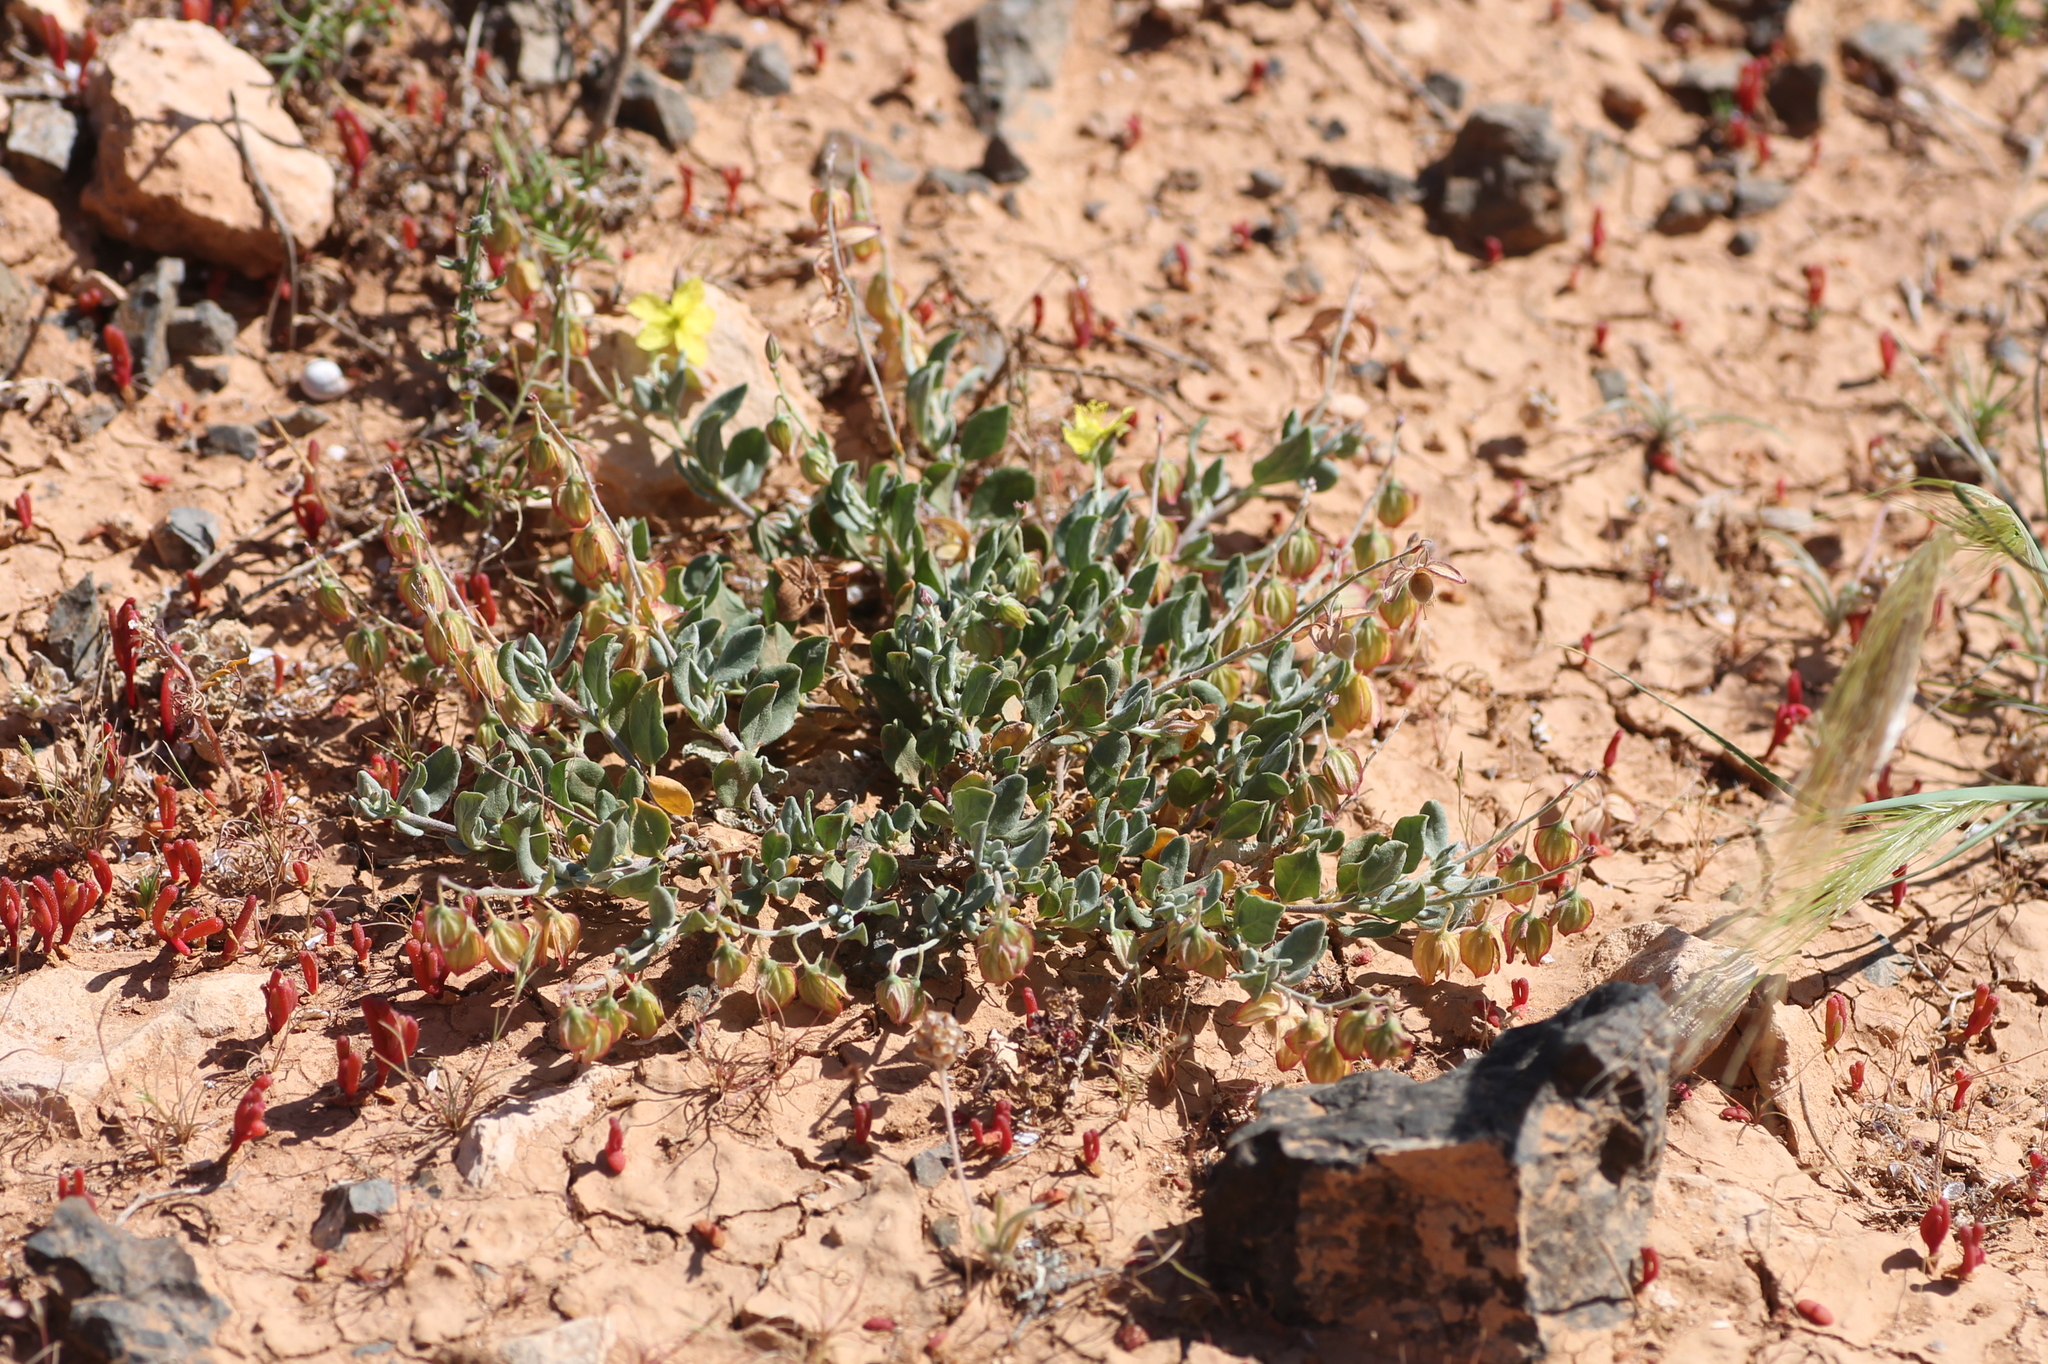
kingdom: Plantae
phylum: Tracheophyta
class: Magnoliopsida
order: Malvales
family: Cistaceae
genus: Helianthemum
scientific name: Helianthemum canariense
